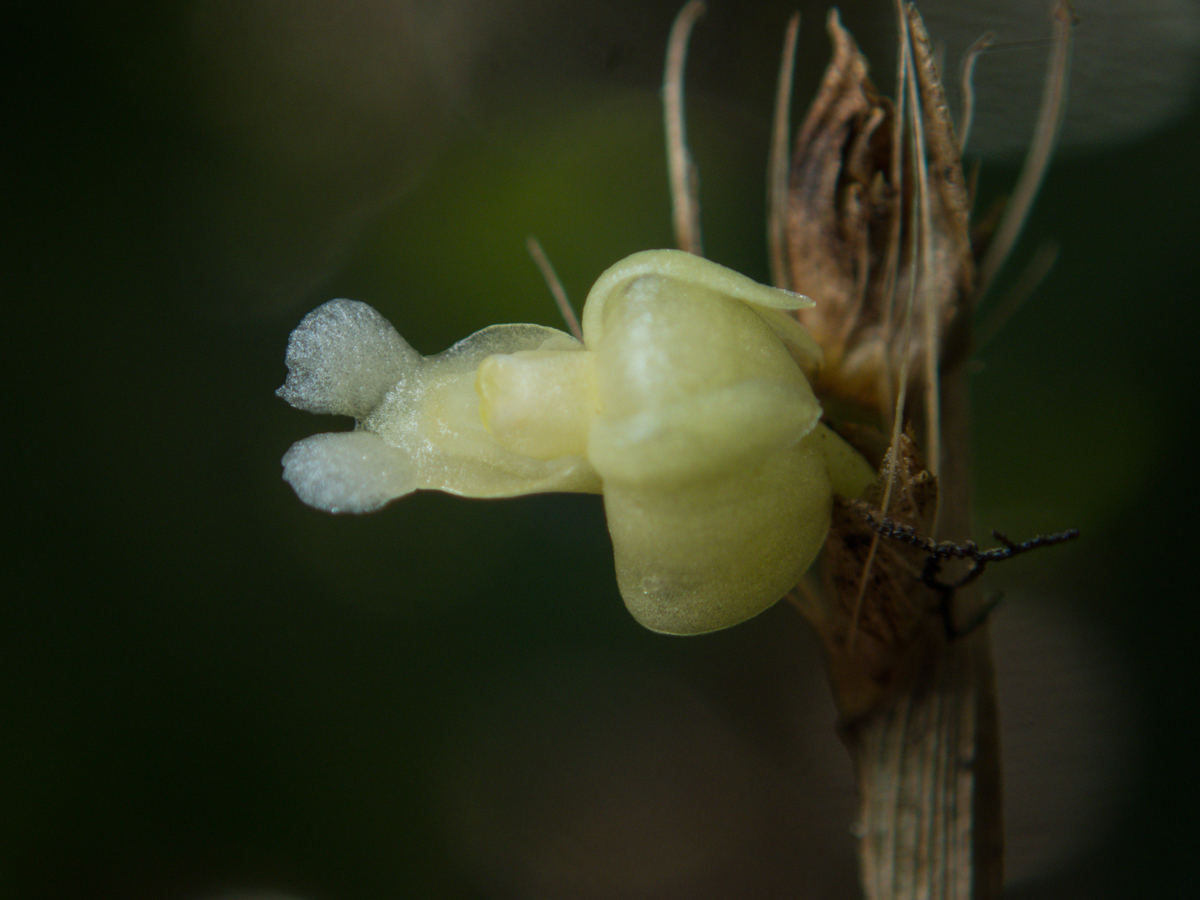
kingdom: Plantae
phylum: Tracheophyta
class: Liliopsida
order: Asparagales
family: Orchidaceae
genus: Dendrobium
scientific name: Dendrobium aloifolium
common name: Aloe-like dendrobium
